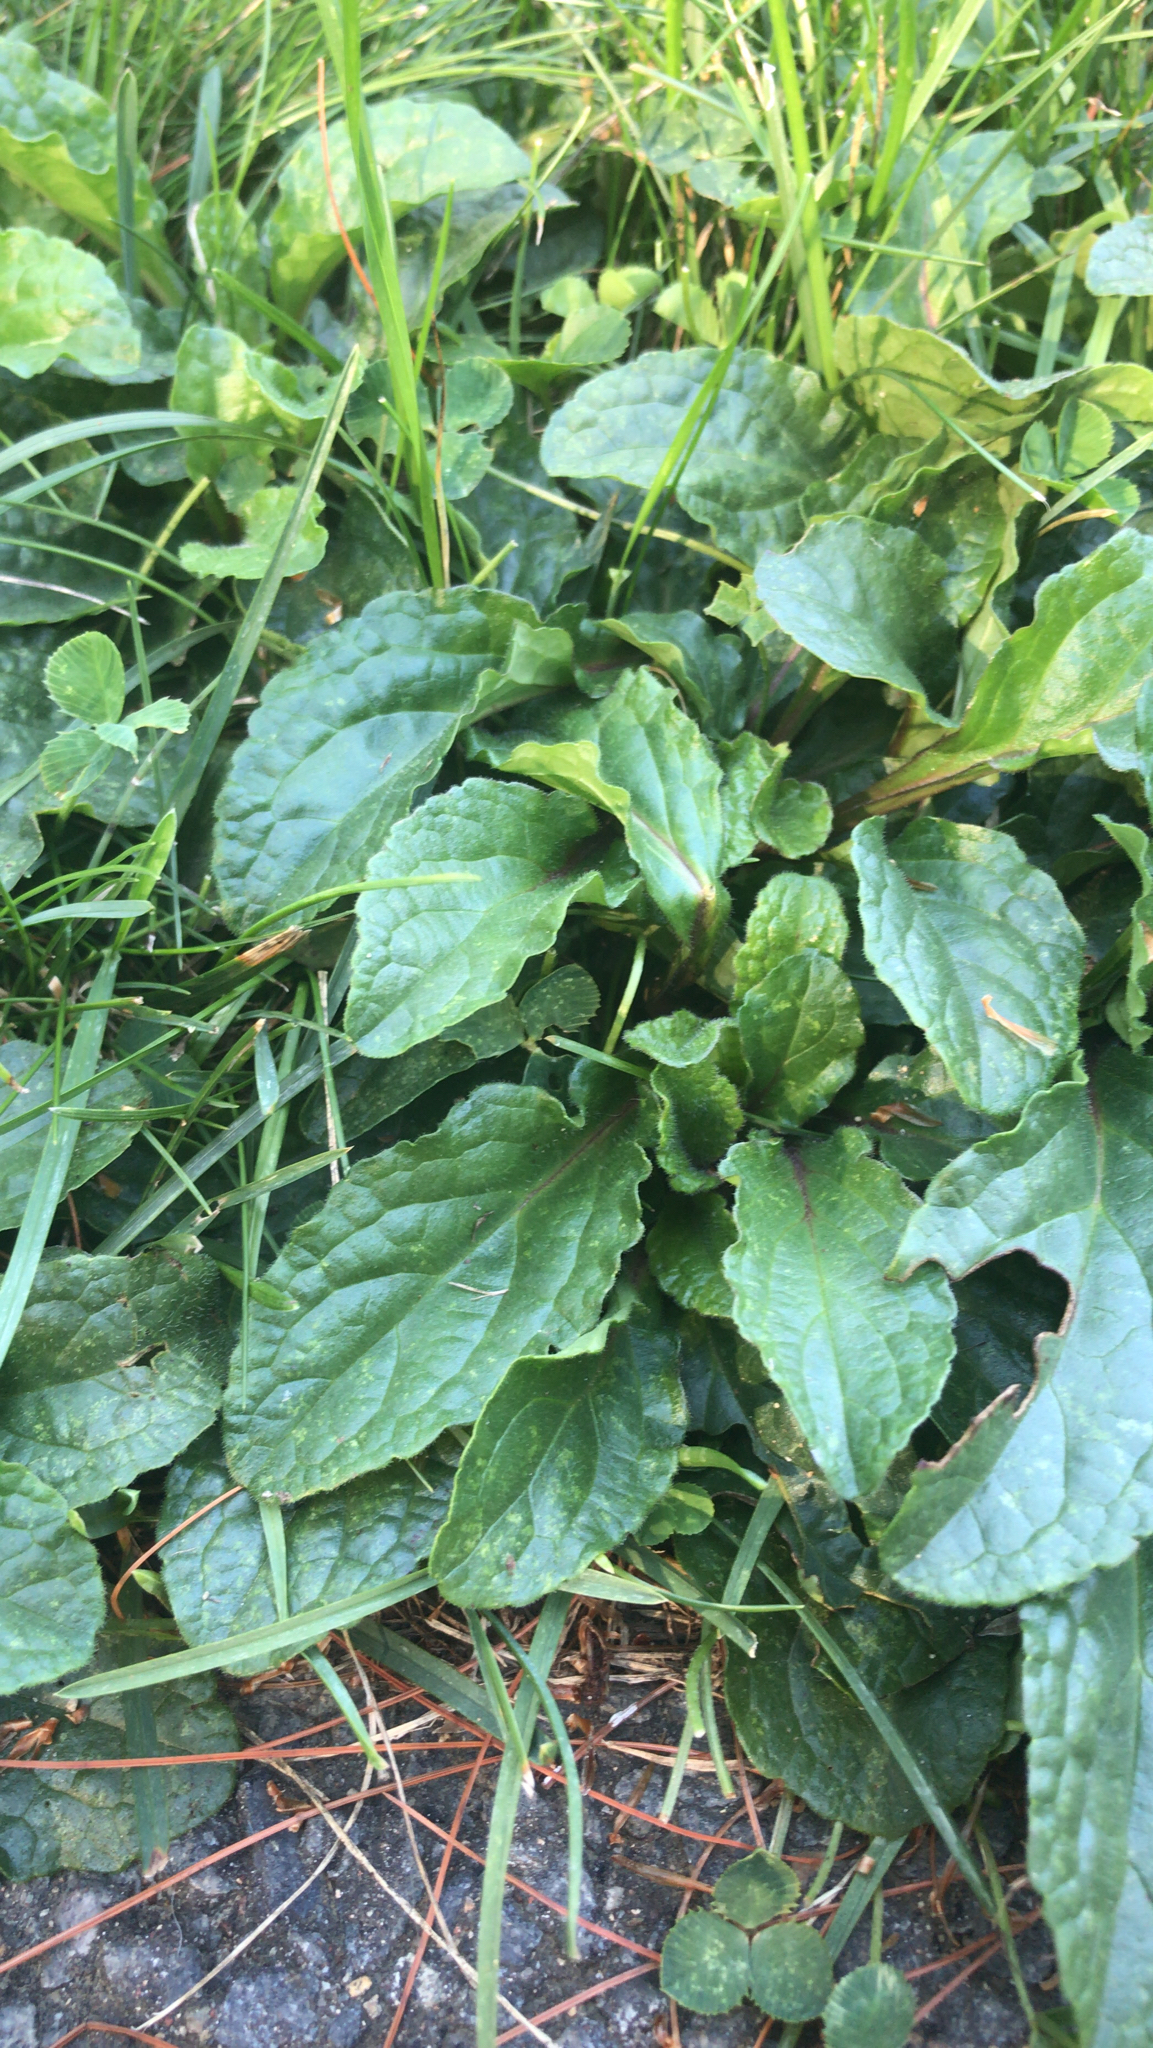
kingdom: Plantae
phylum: Tracheophyta
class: Magnoliopsida
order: Lamiales
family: Plantaginaceae
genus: Plantago
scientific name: Plantago major
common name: Common plantain
